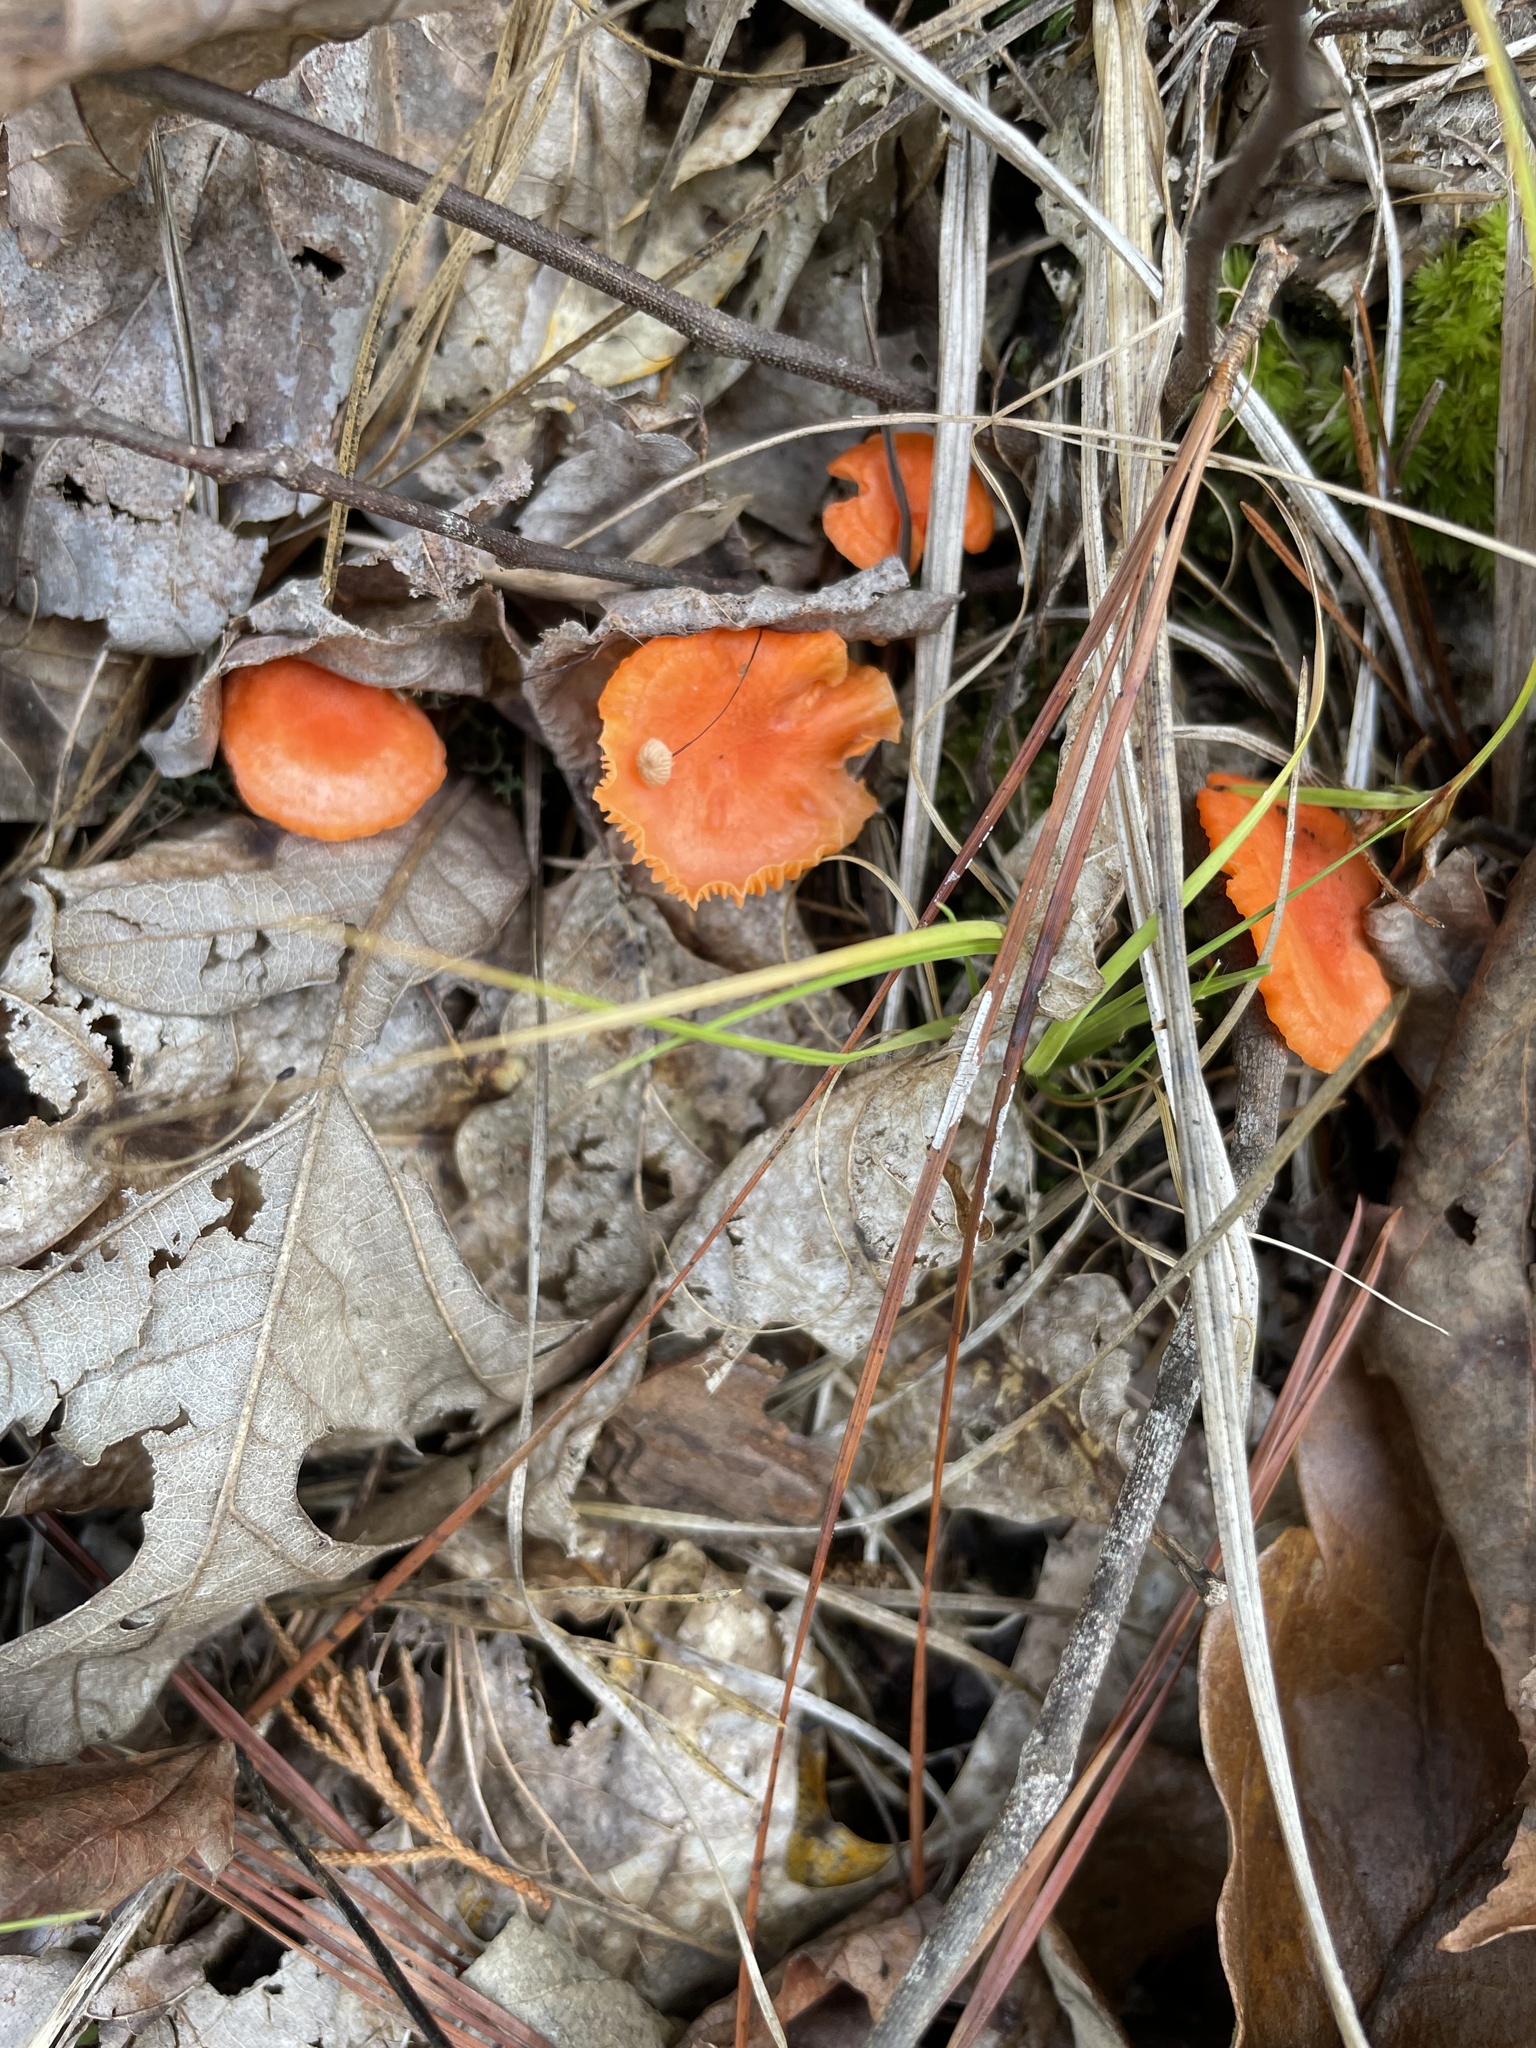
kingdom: Fungi
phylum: Basidiomycota
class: Agaricomycetes
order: Cantharellales
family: Hydnaceae
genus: Cantharellus
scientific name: Cantharellus cinnabarinus
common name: Cinnabar chanterelle
